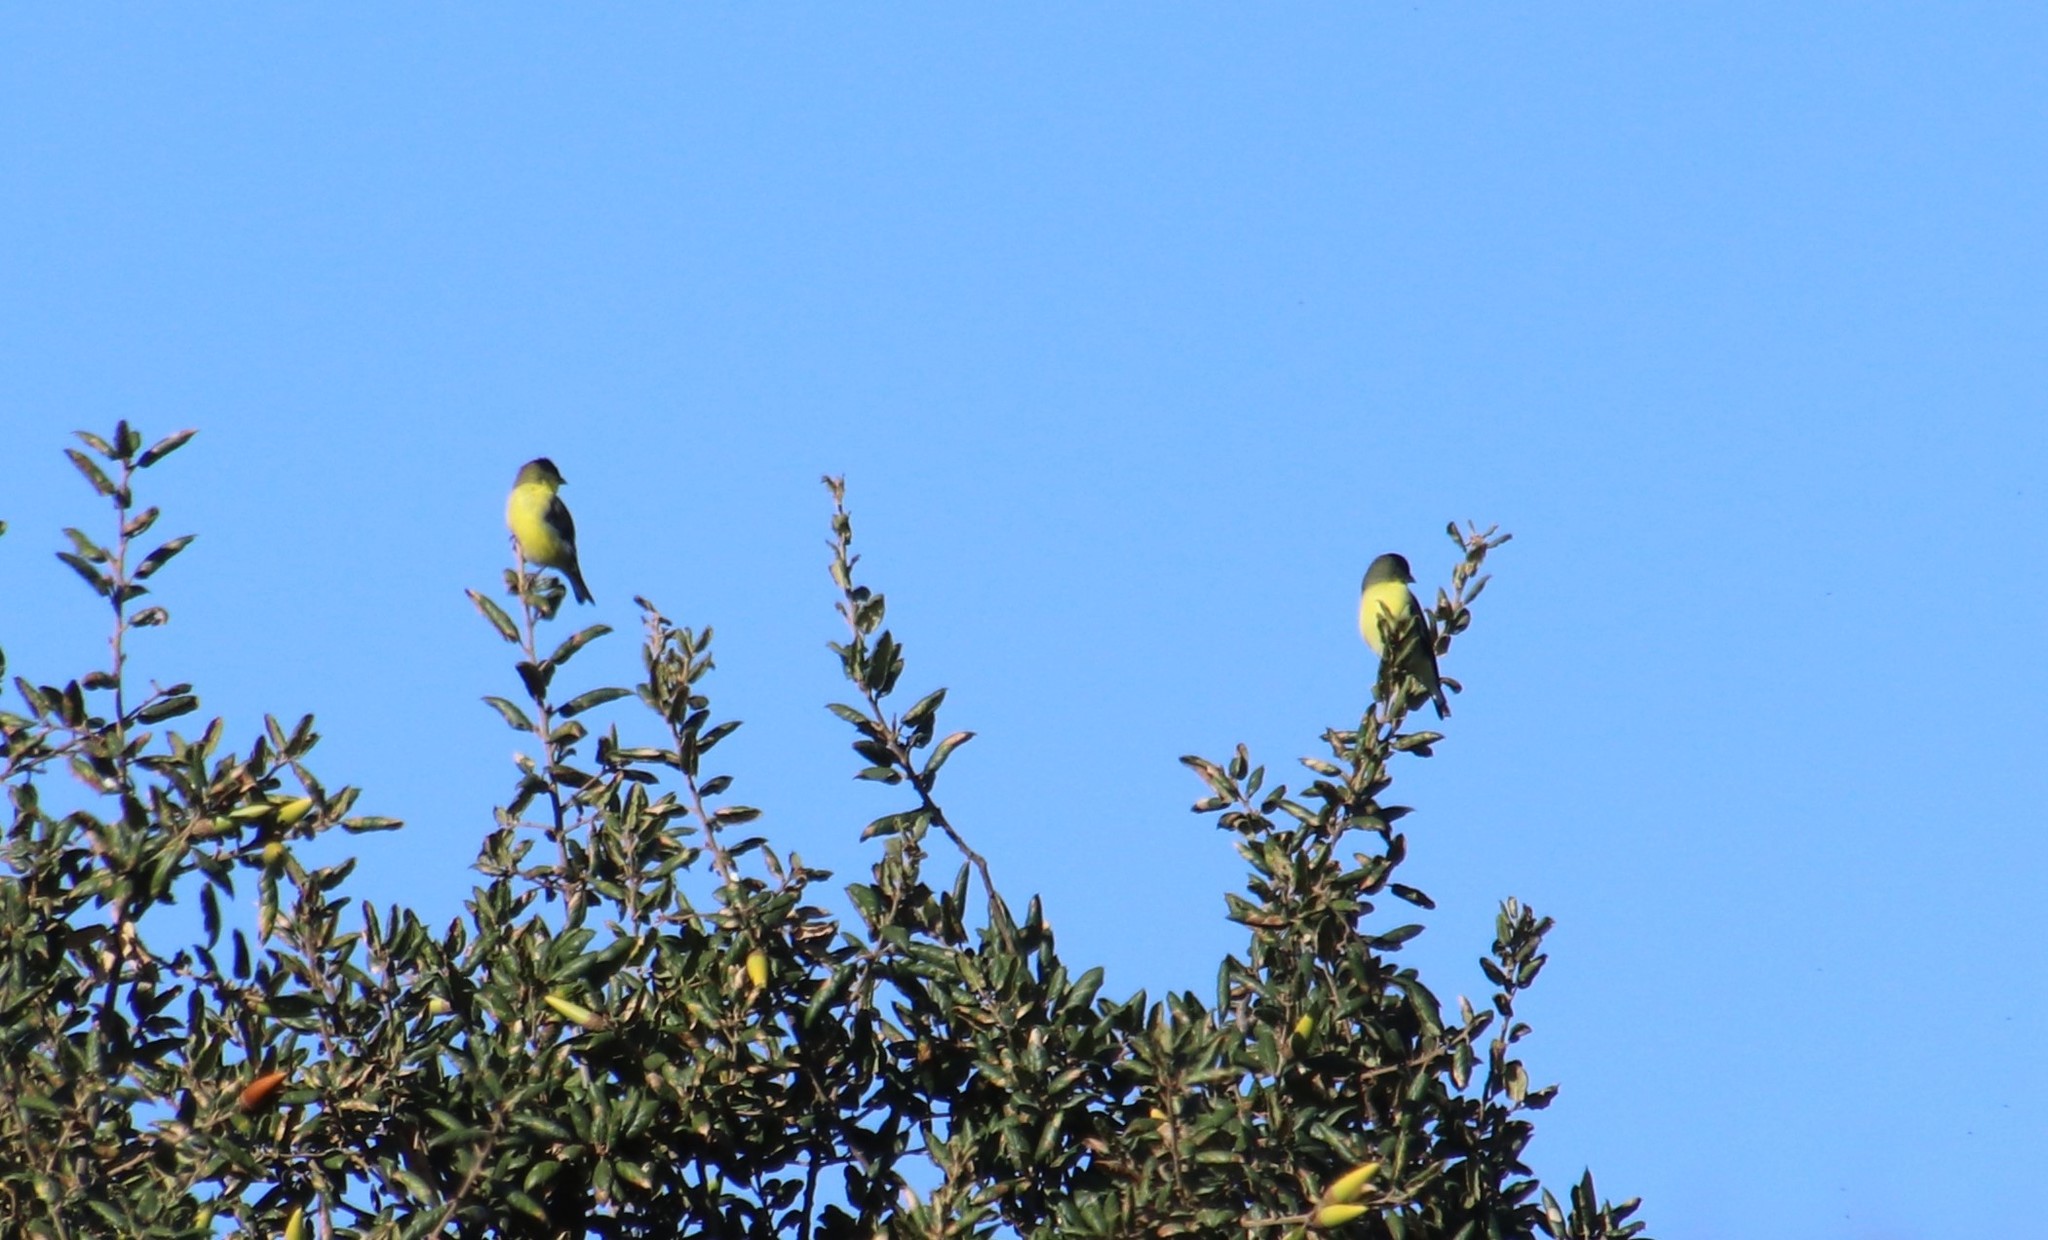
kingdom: Animalia
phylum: Chordata
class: Aves
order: Passeriformes
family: Fringillidae
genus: Spinus
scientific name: Spinus psaltria
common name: Lesser goldfinch
